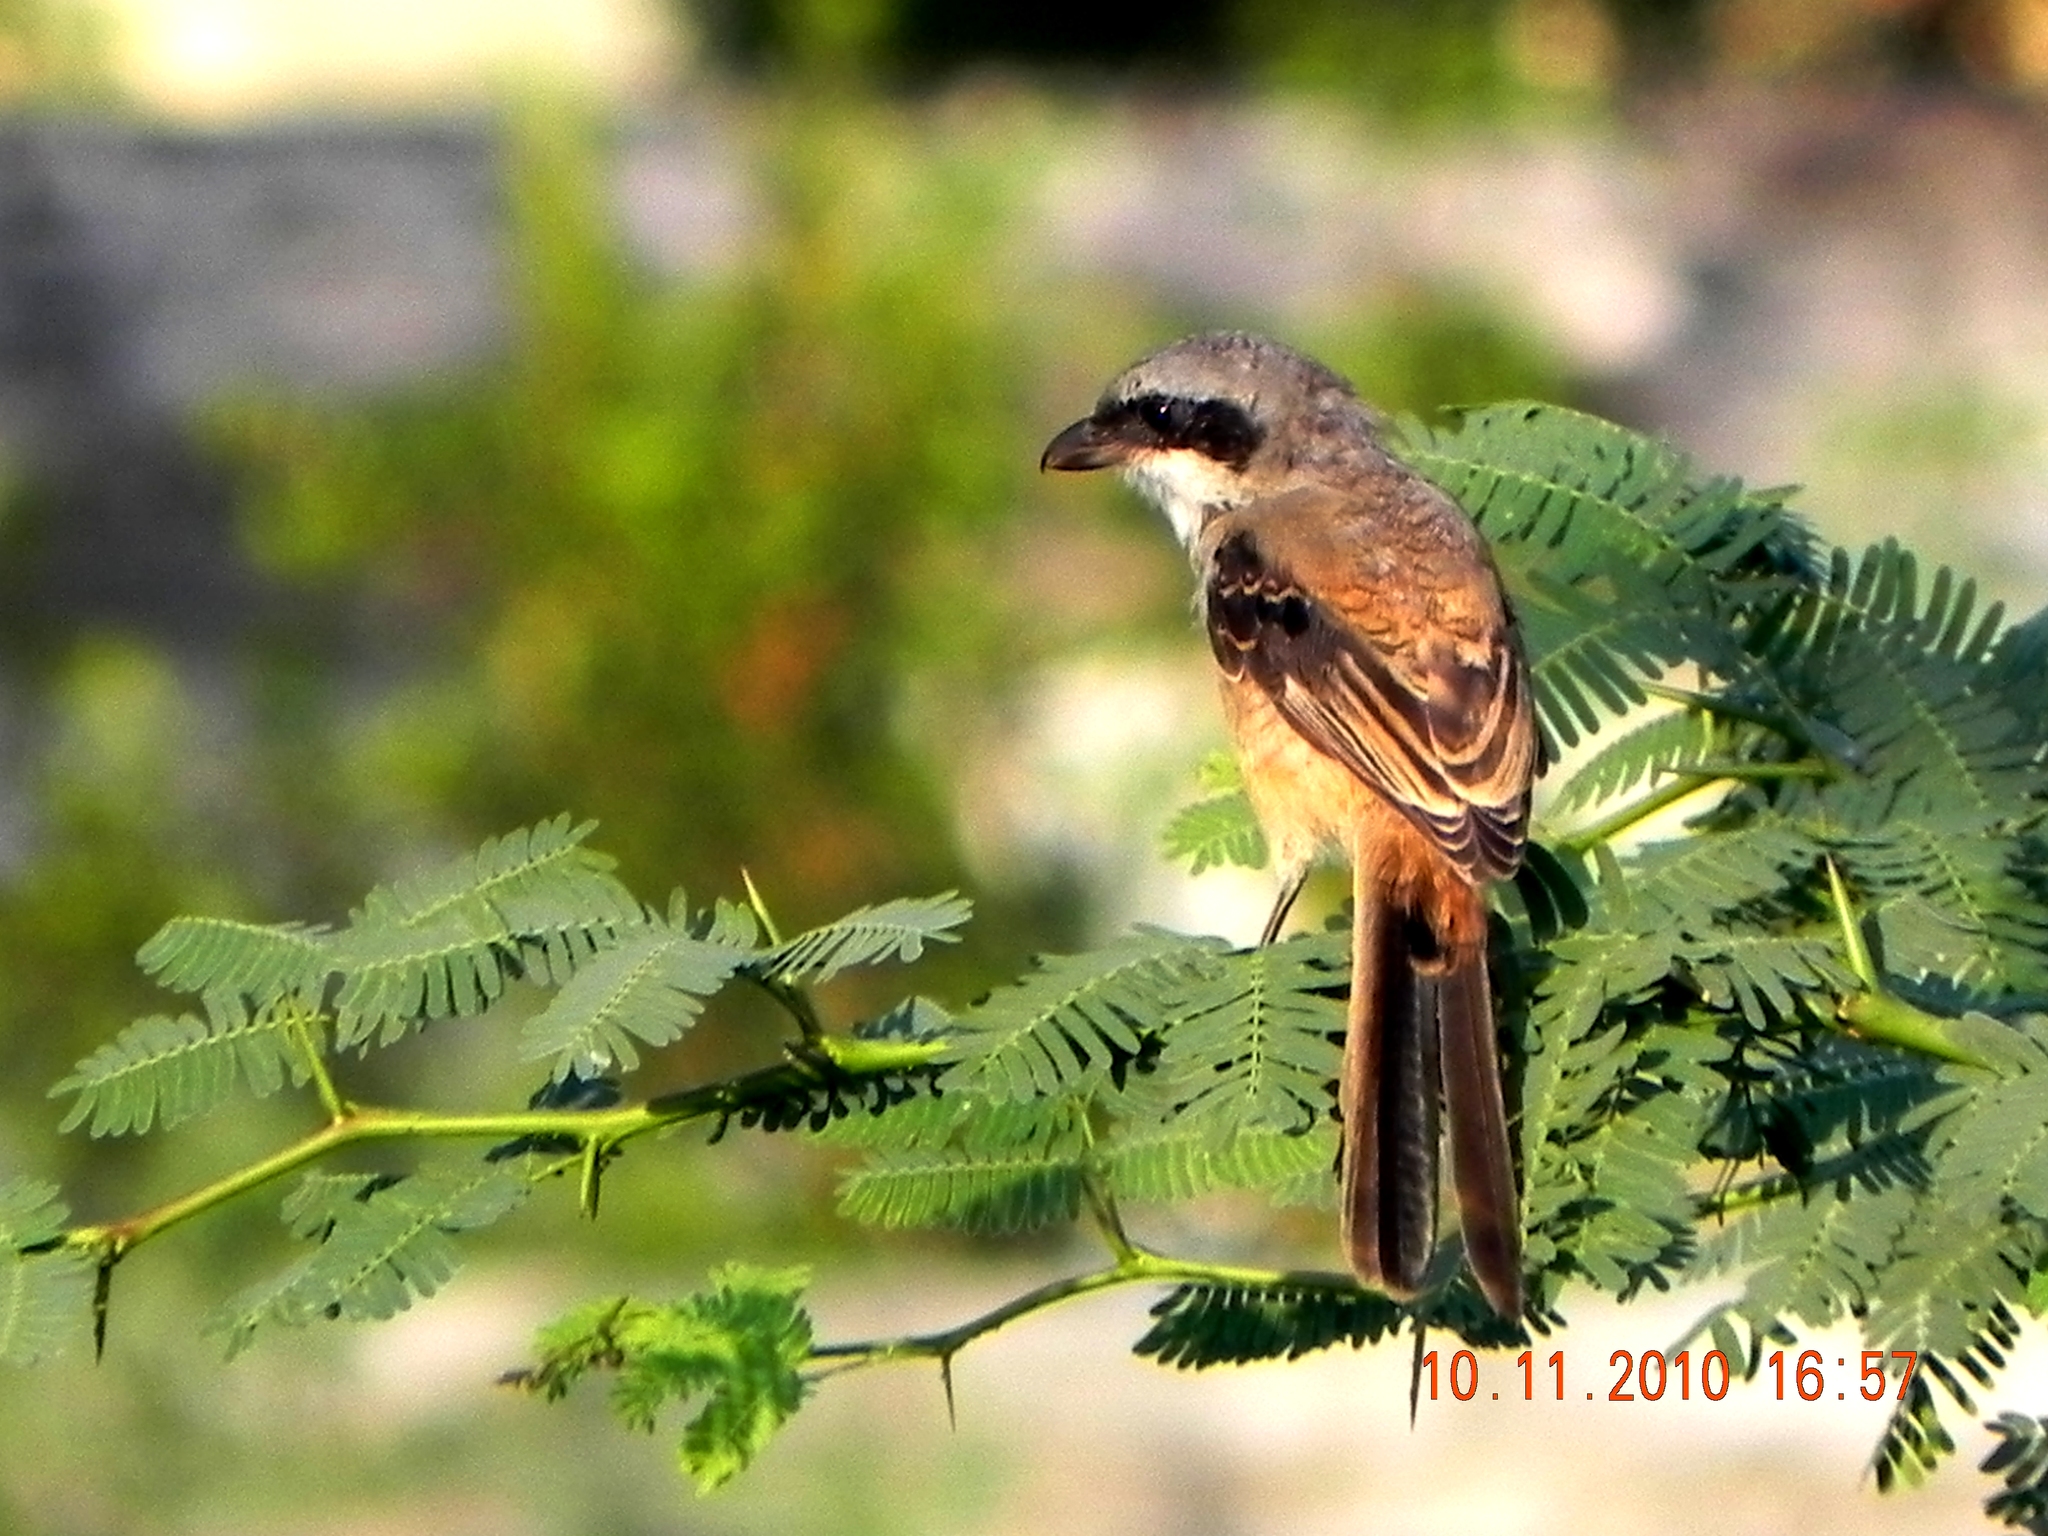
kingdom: Animalia
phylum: Chordata
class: Aves
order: Passeriformes
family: Laniidae
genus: Lanius
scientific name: Lanius schach
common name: Long-tailed shrike
